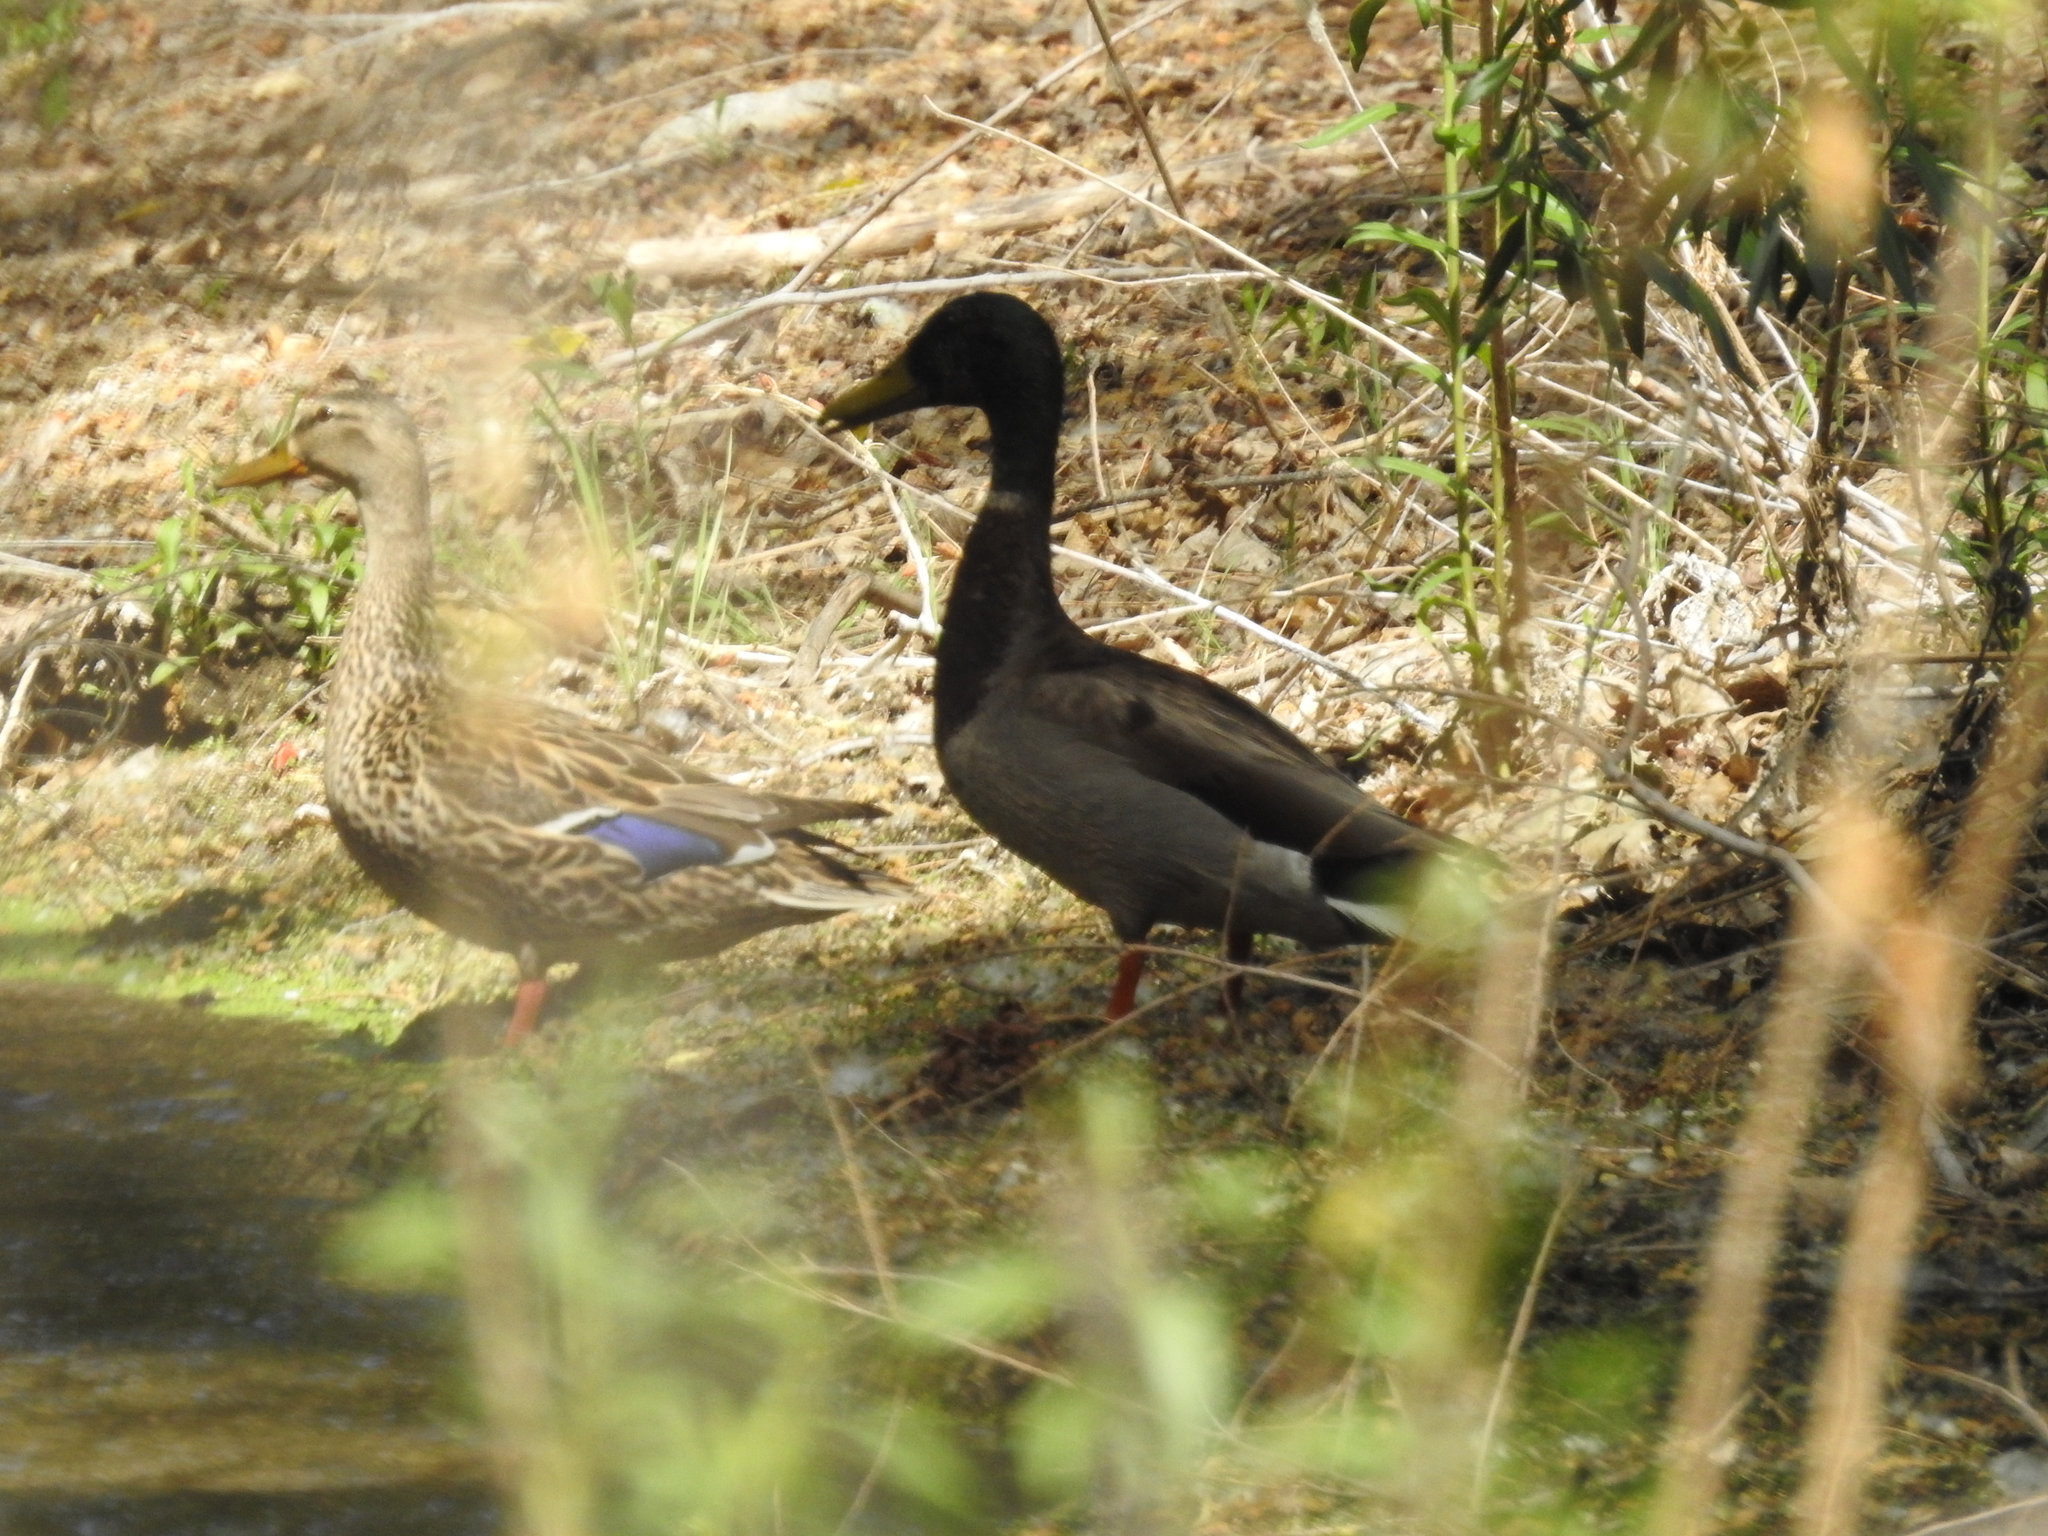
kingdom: Animalia
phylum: Chordata
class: Aves
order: Anseriformes
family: Anatidae
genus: Anas
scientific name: Anas platyrhynchos
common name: Mallard
